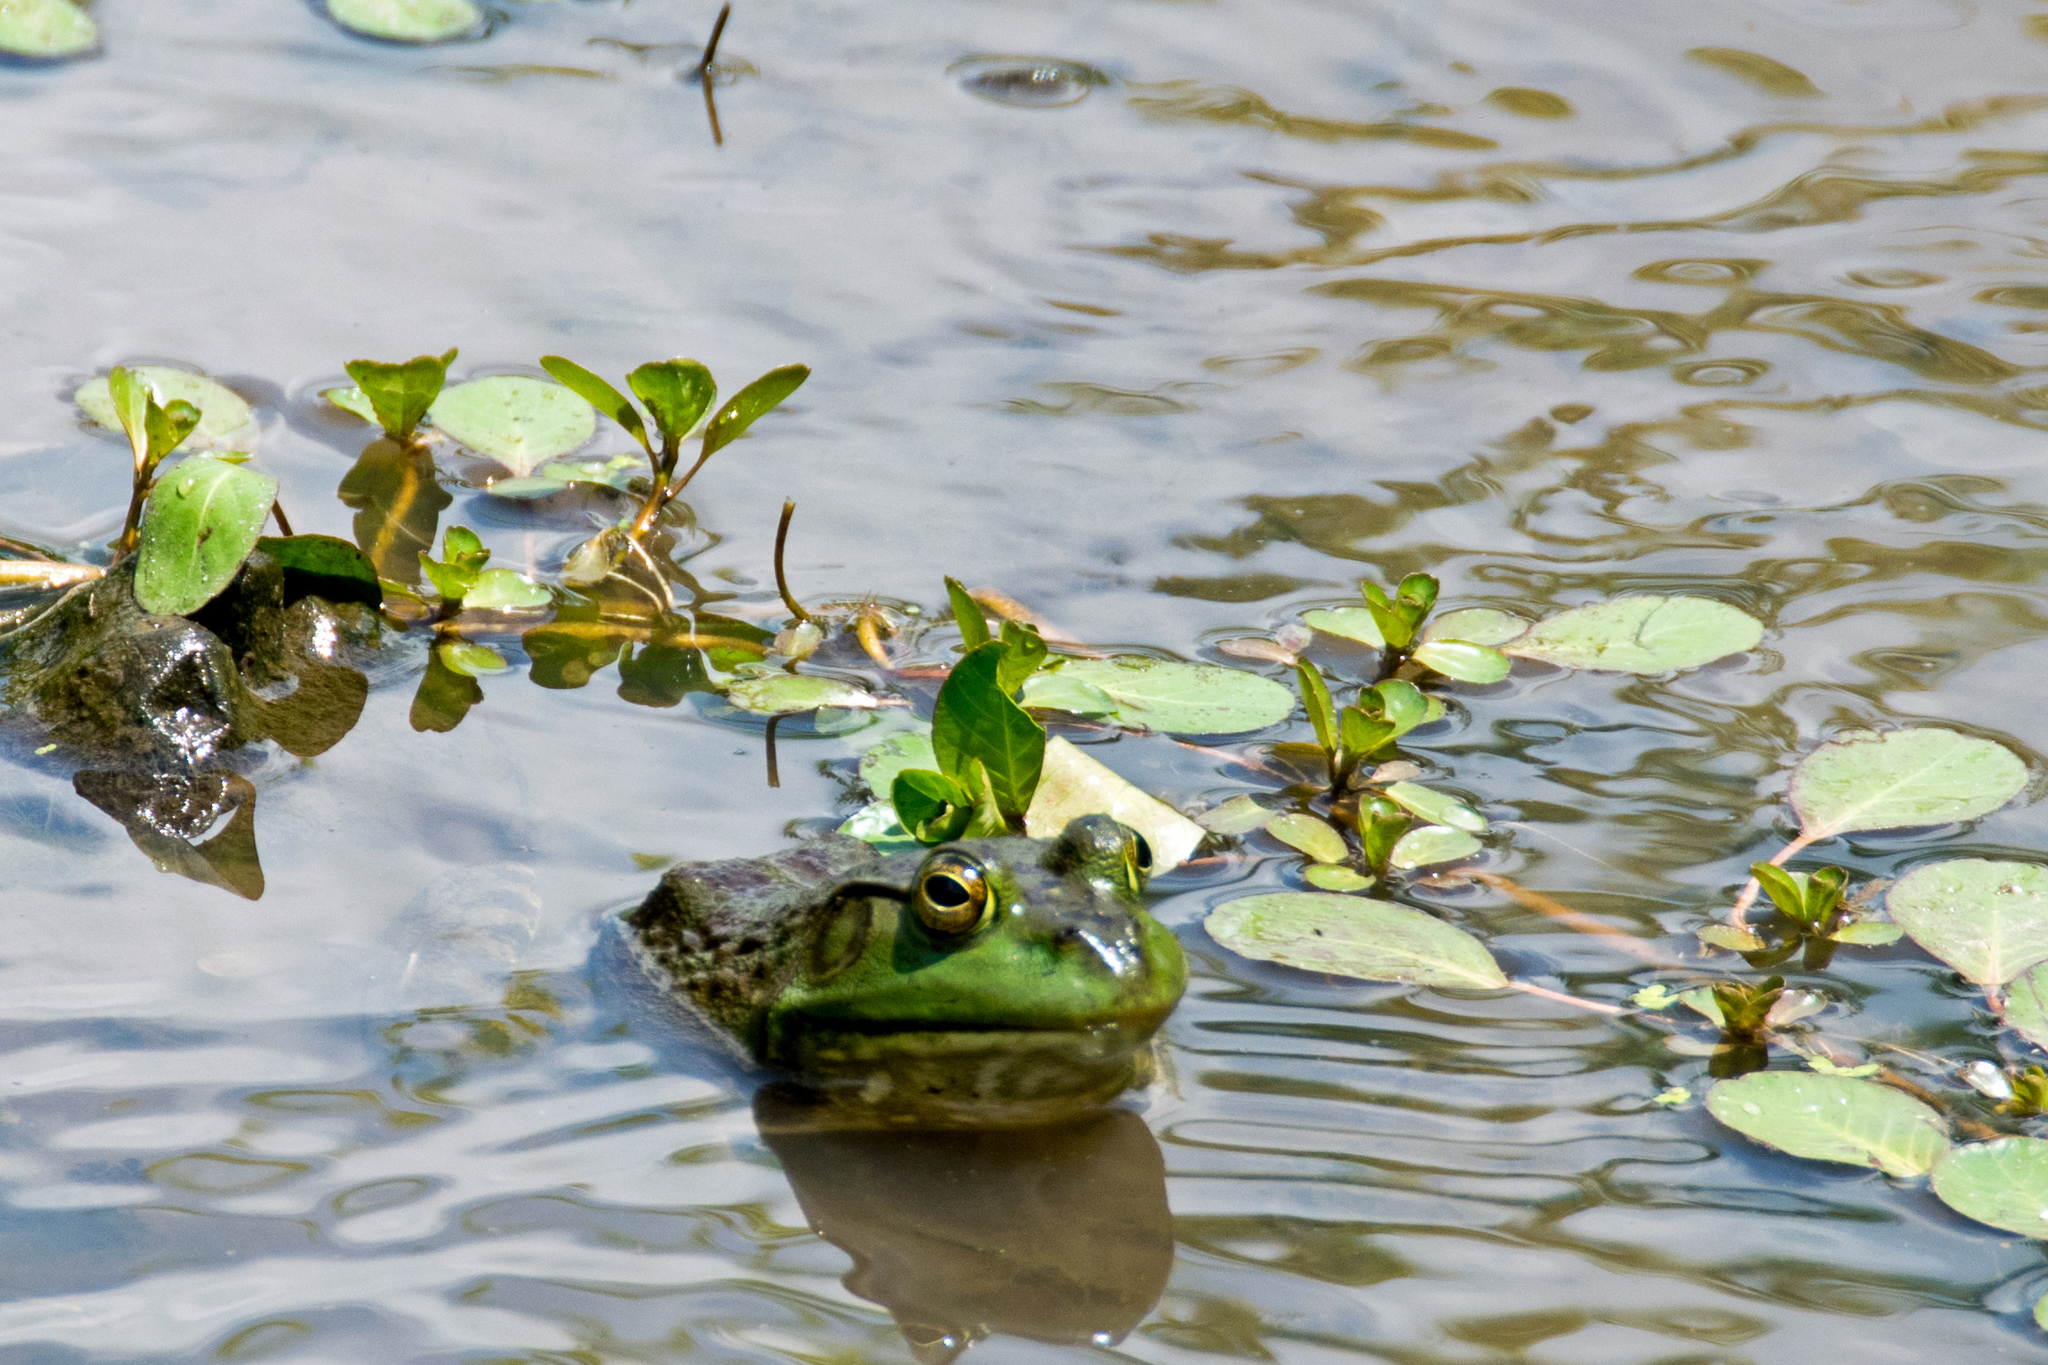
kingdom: Animalia
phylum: Chordata
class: Amphibia
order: Anura
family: Ranidae
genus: Lithobates
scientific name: Lithobates catesbeianus
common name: American bullfrog
